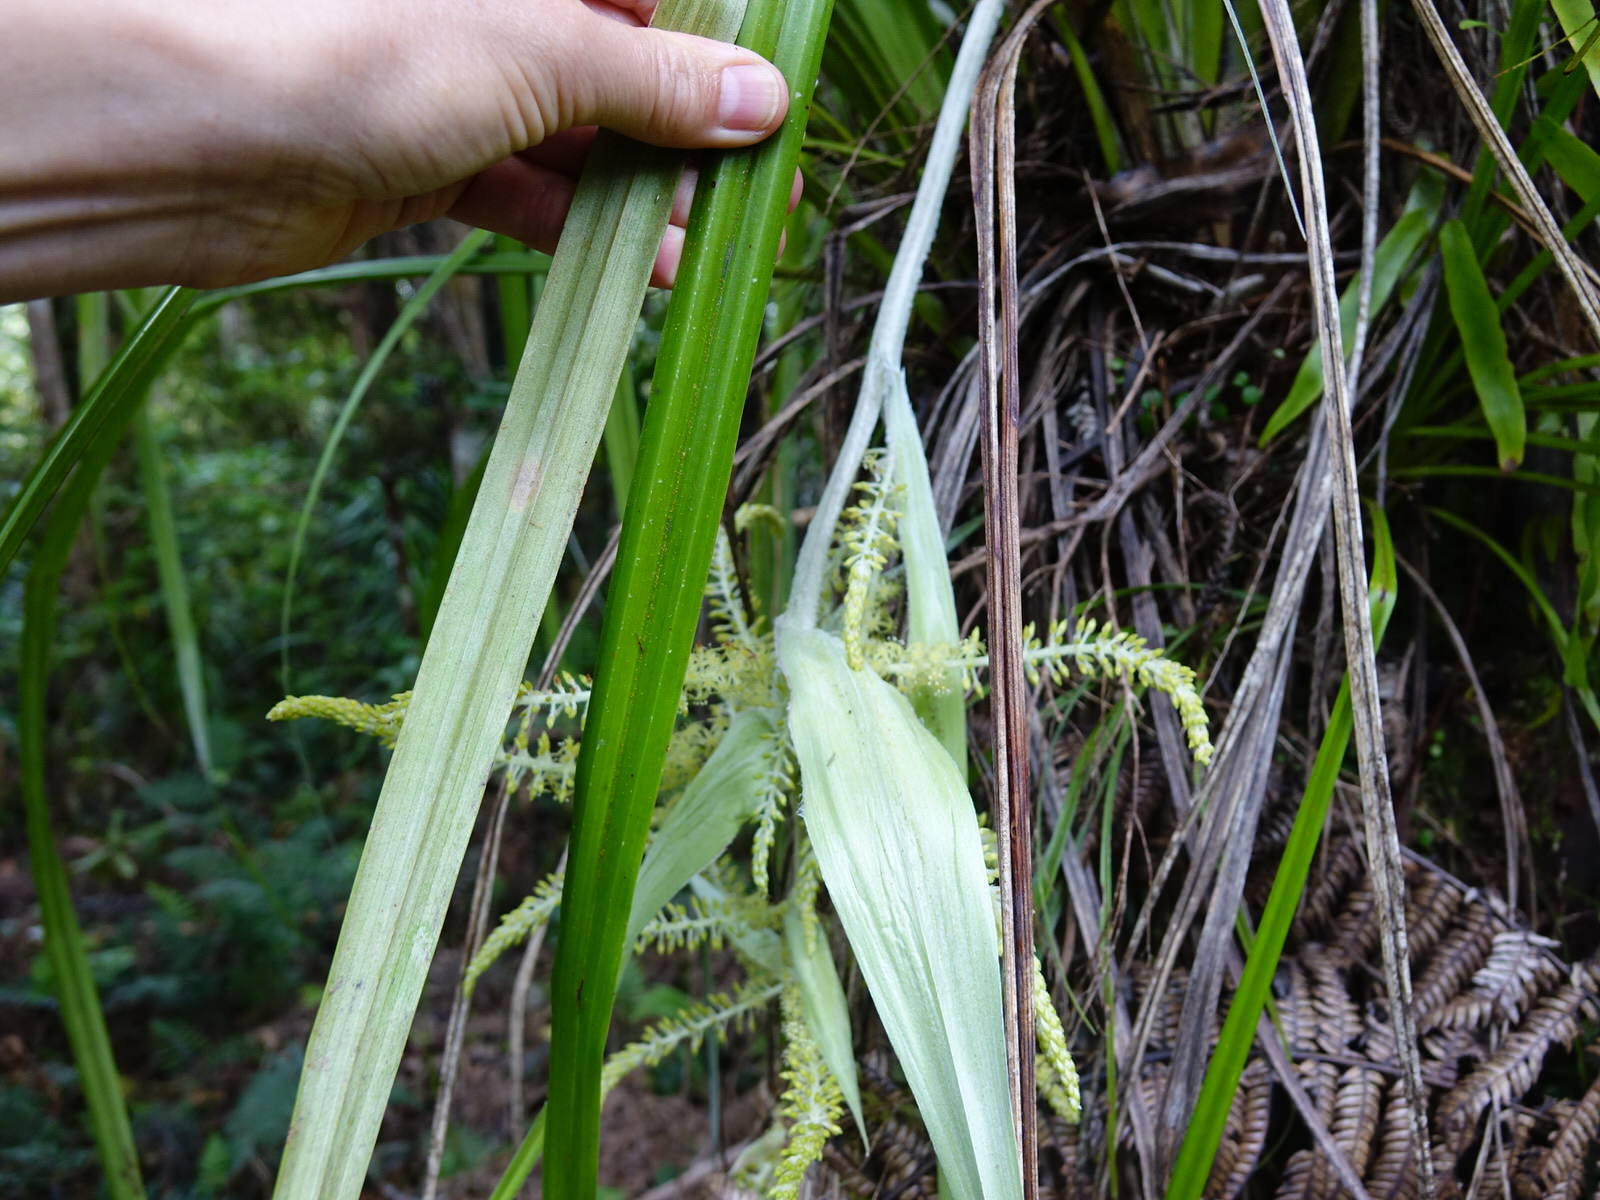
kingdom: Plantae
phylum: Tracheophyta
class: Liliopsida
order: Asparagales
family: Asteliaceae
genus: Astelia
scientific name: Astelia solandri
